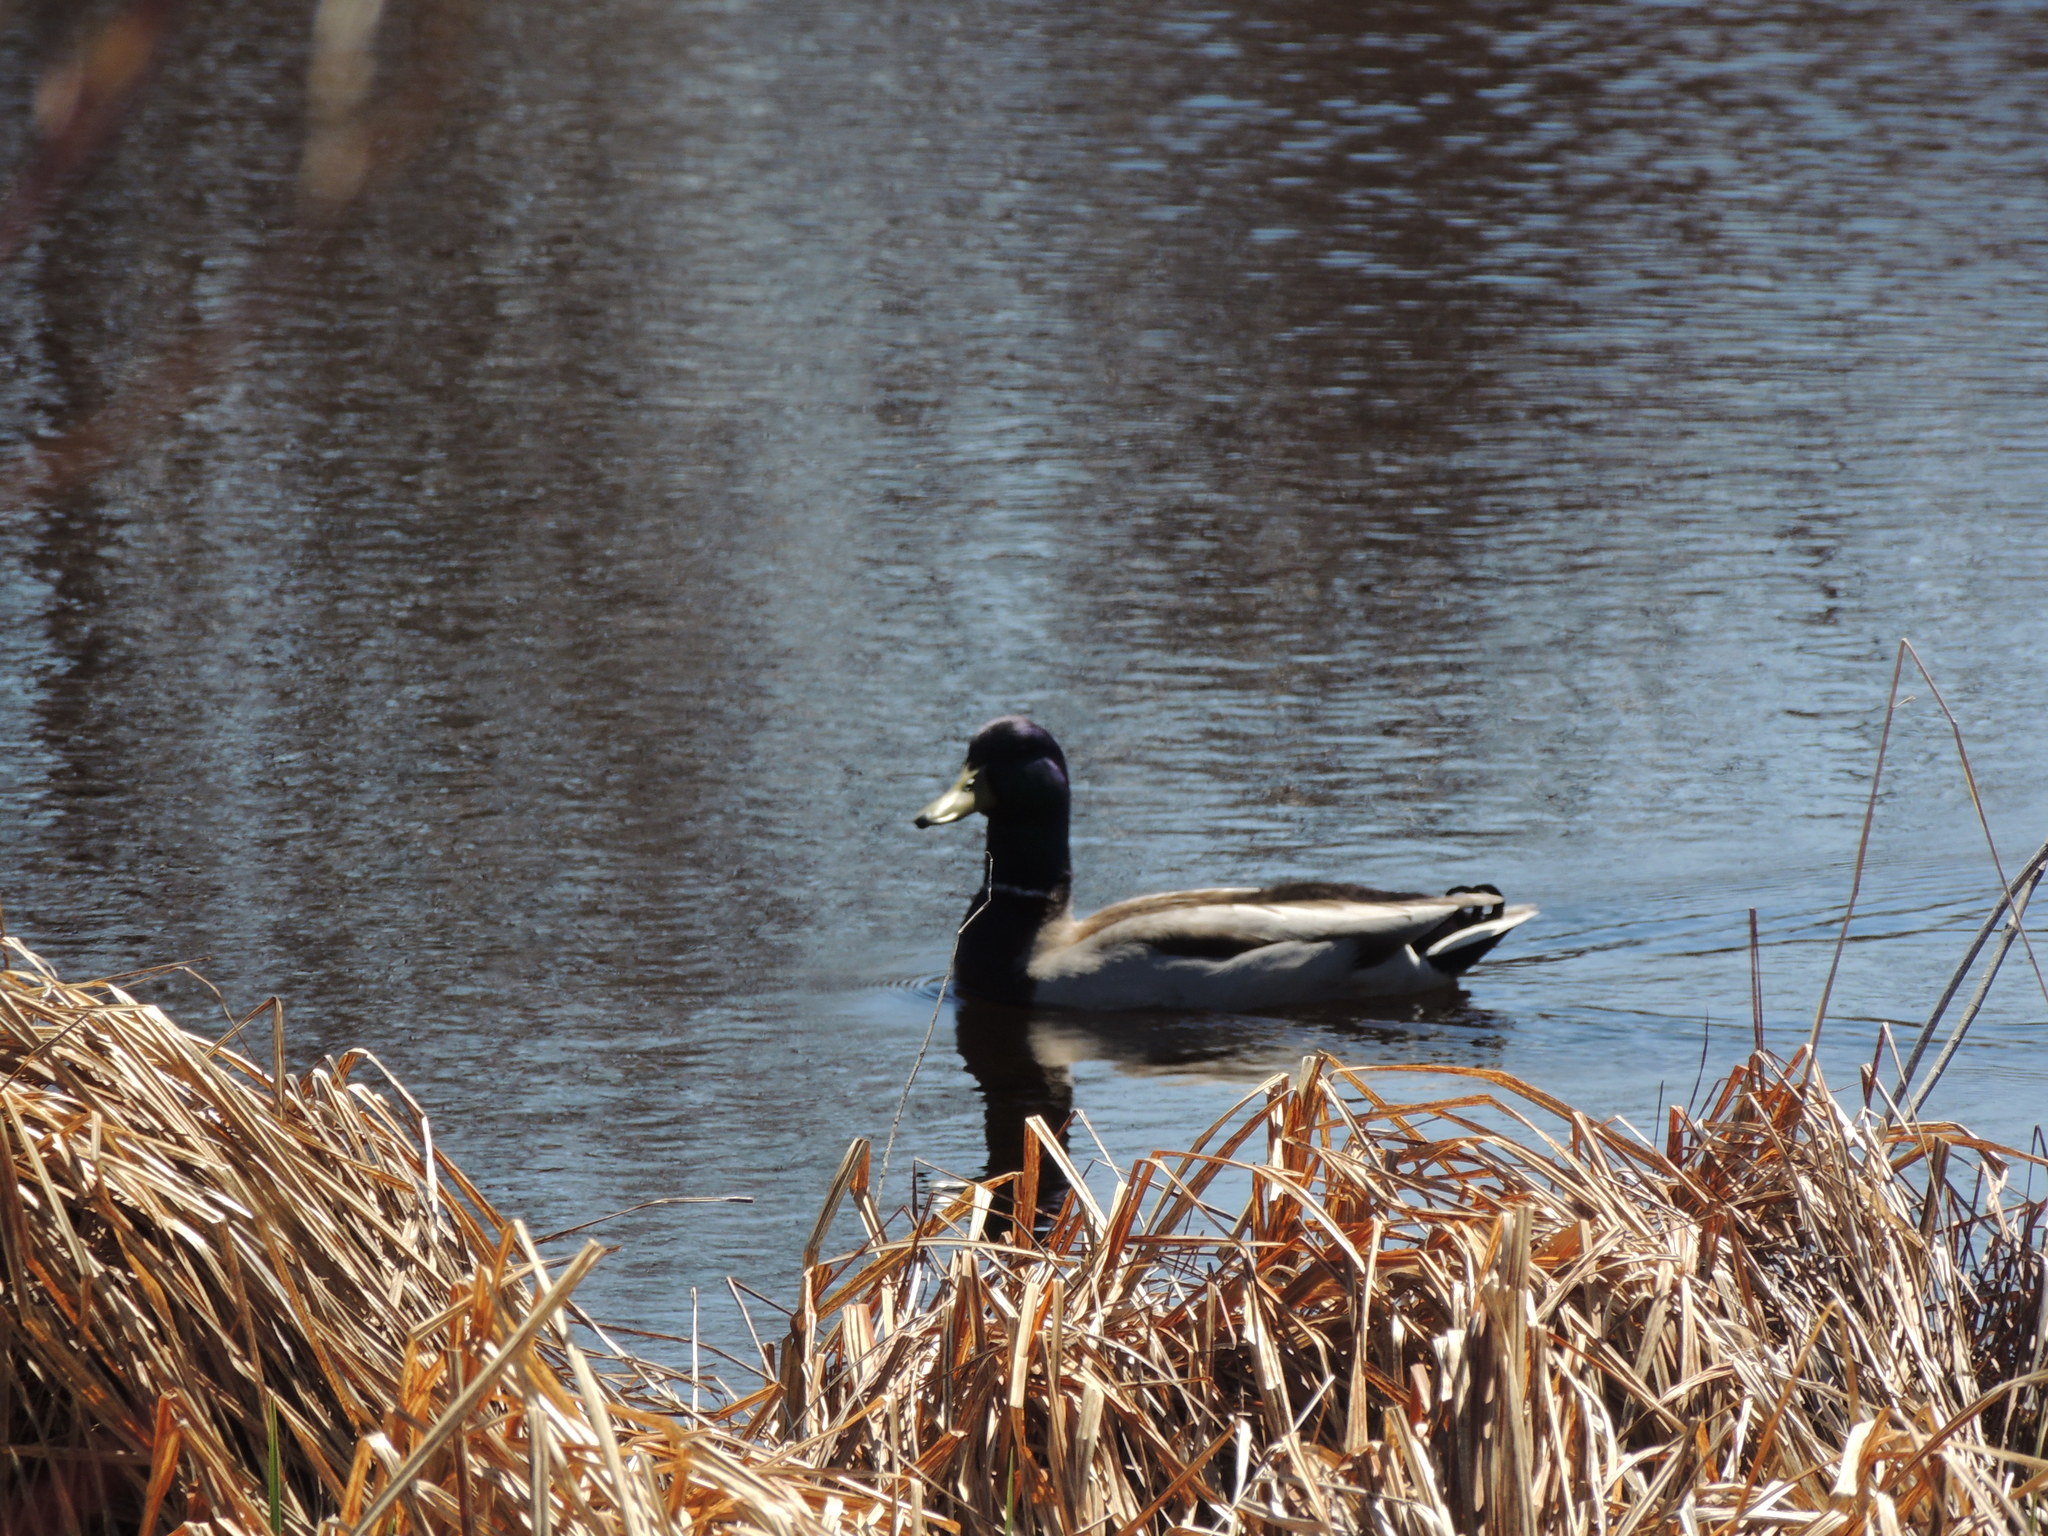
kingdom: Animalia
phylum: Chordata
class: Aves
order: Anseriformes
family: Anatidae
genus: Anas
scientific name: Anas platyrhynchos
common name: Mallard
